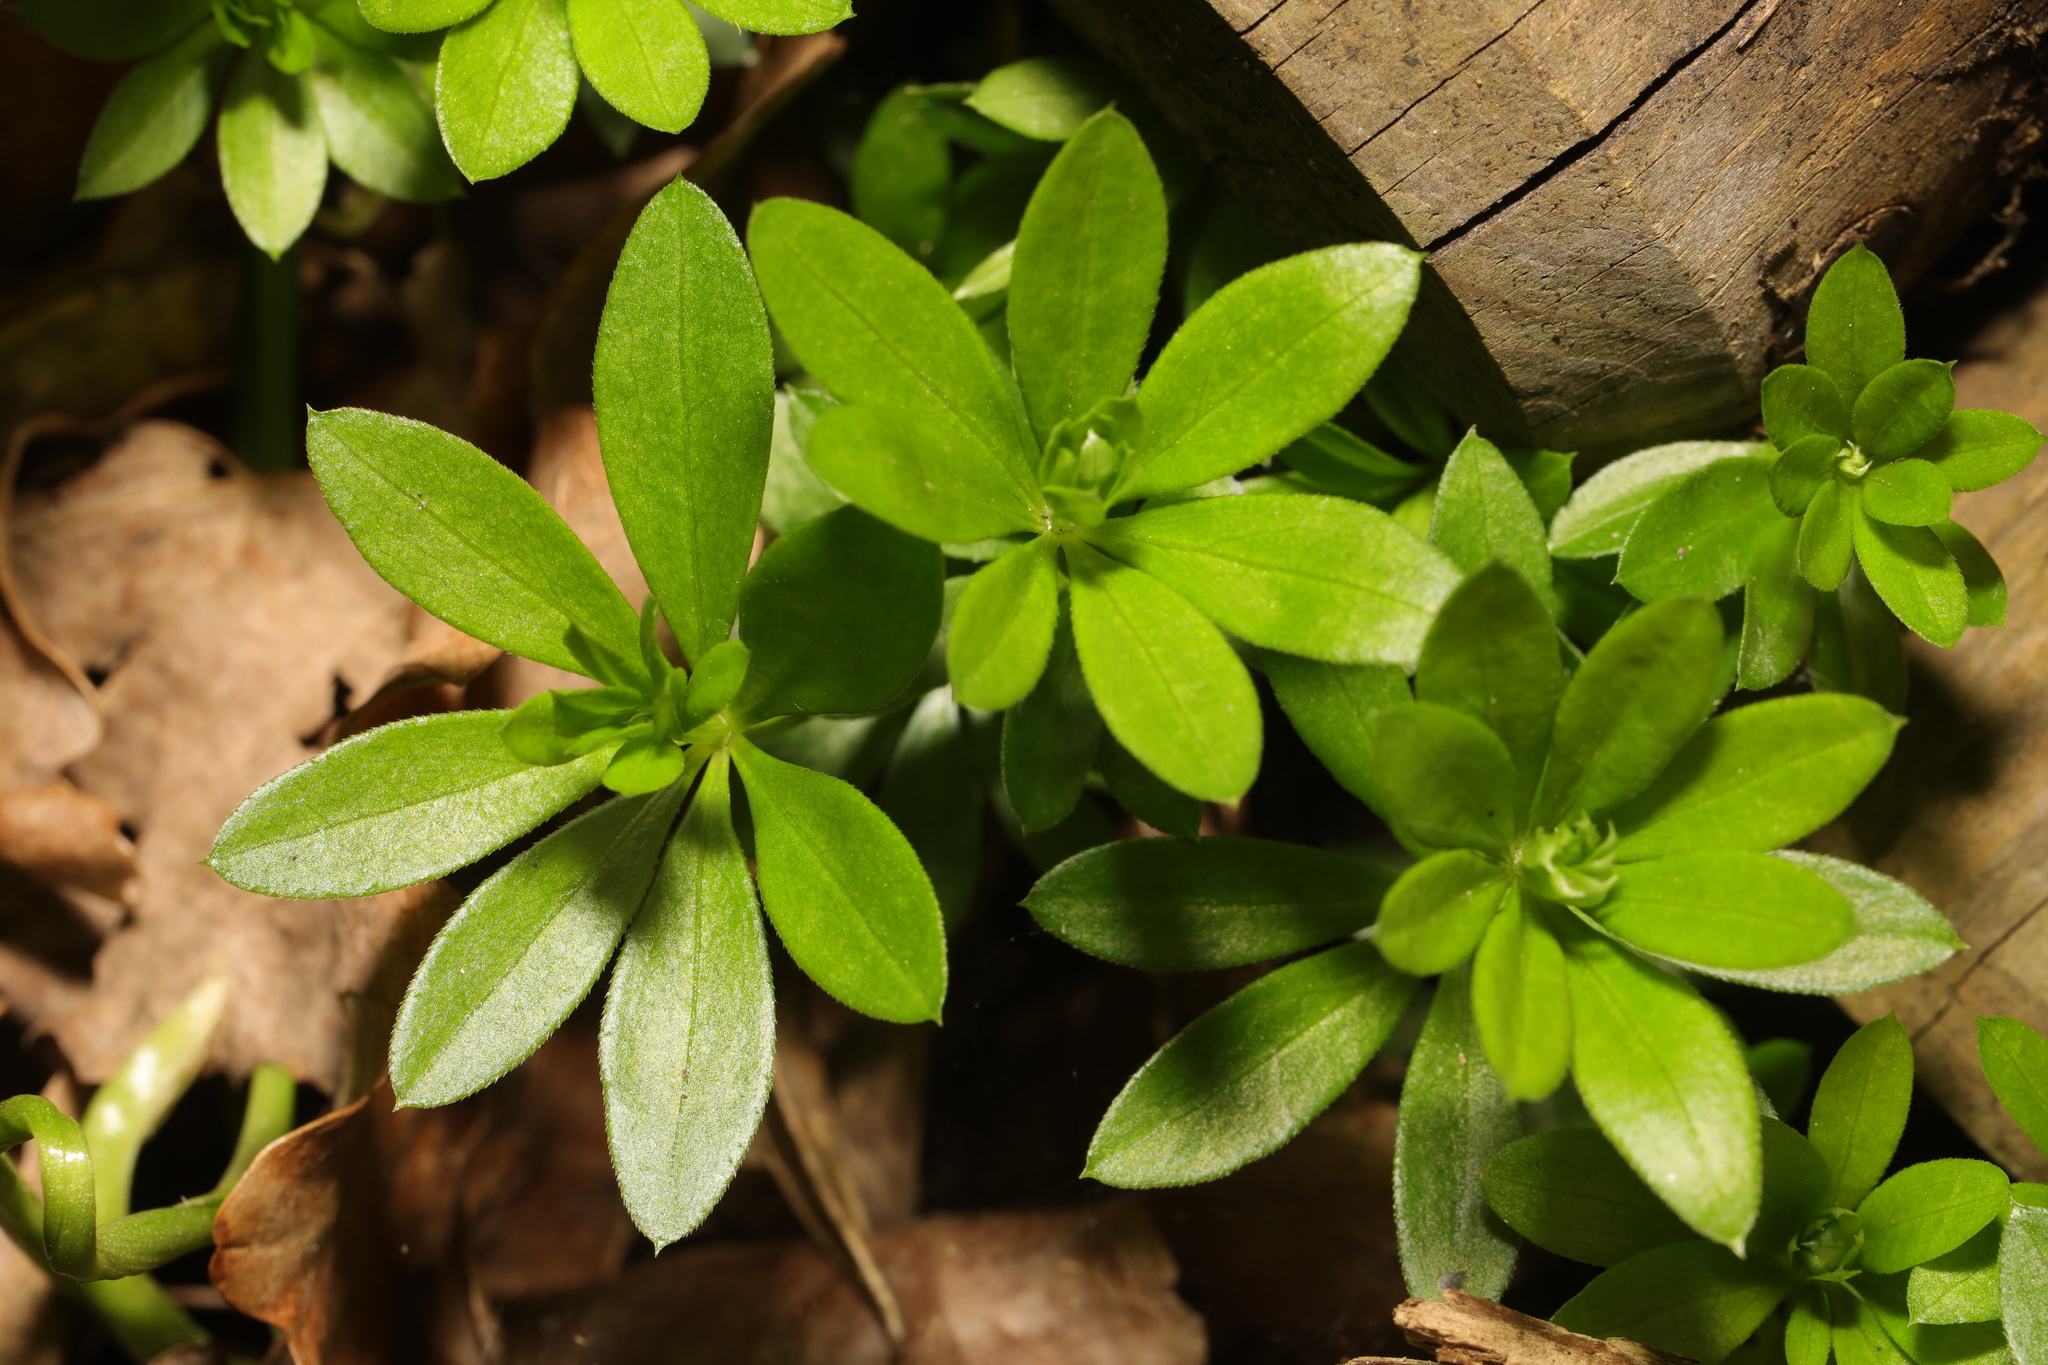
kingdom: Plantae
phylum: Tracheophyta
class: Magnoliopsida
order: Gentianales
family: Rubiaceae
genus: Galium
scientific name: Galium odoratum
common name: Sweet woodruff
